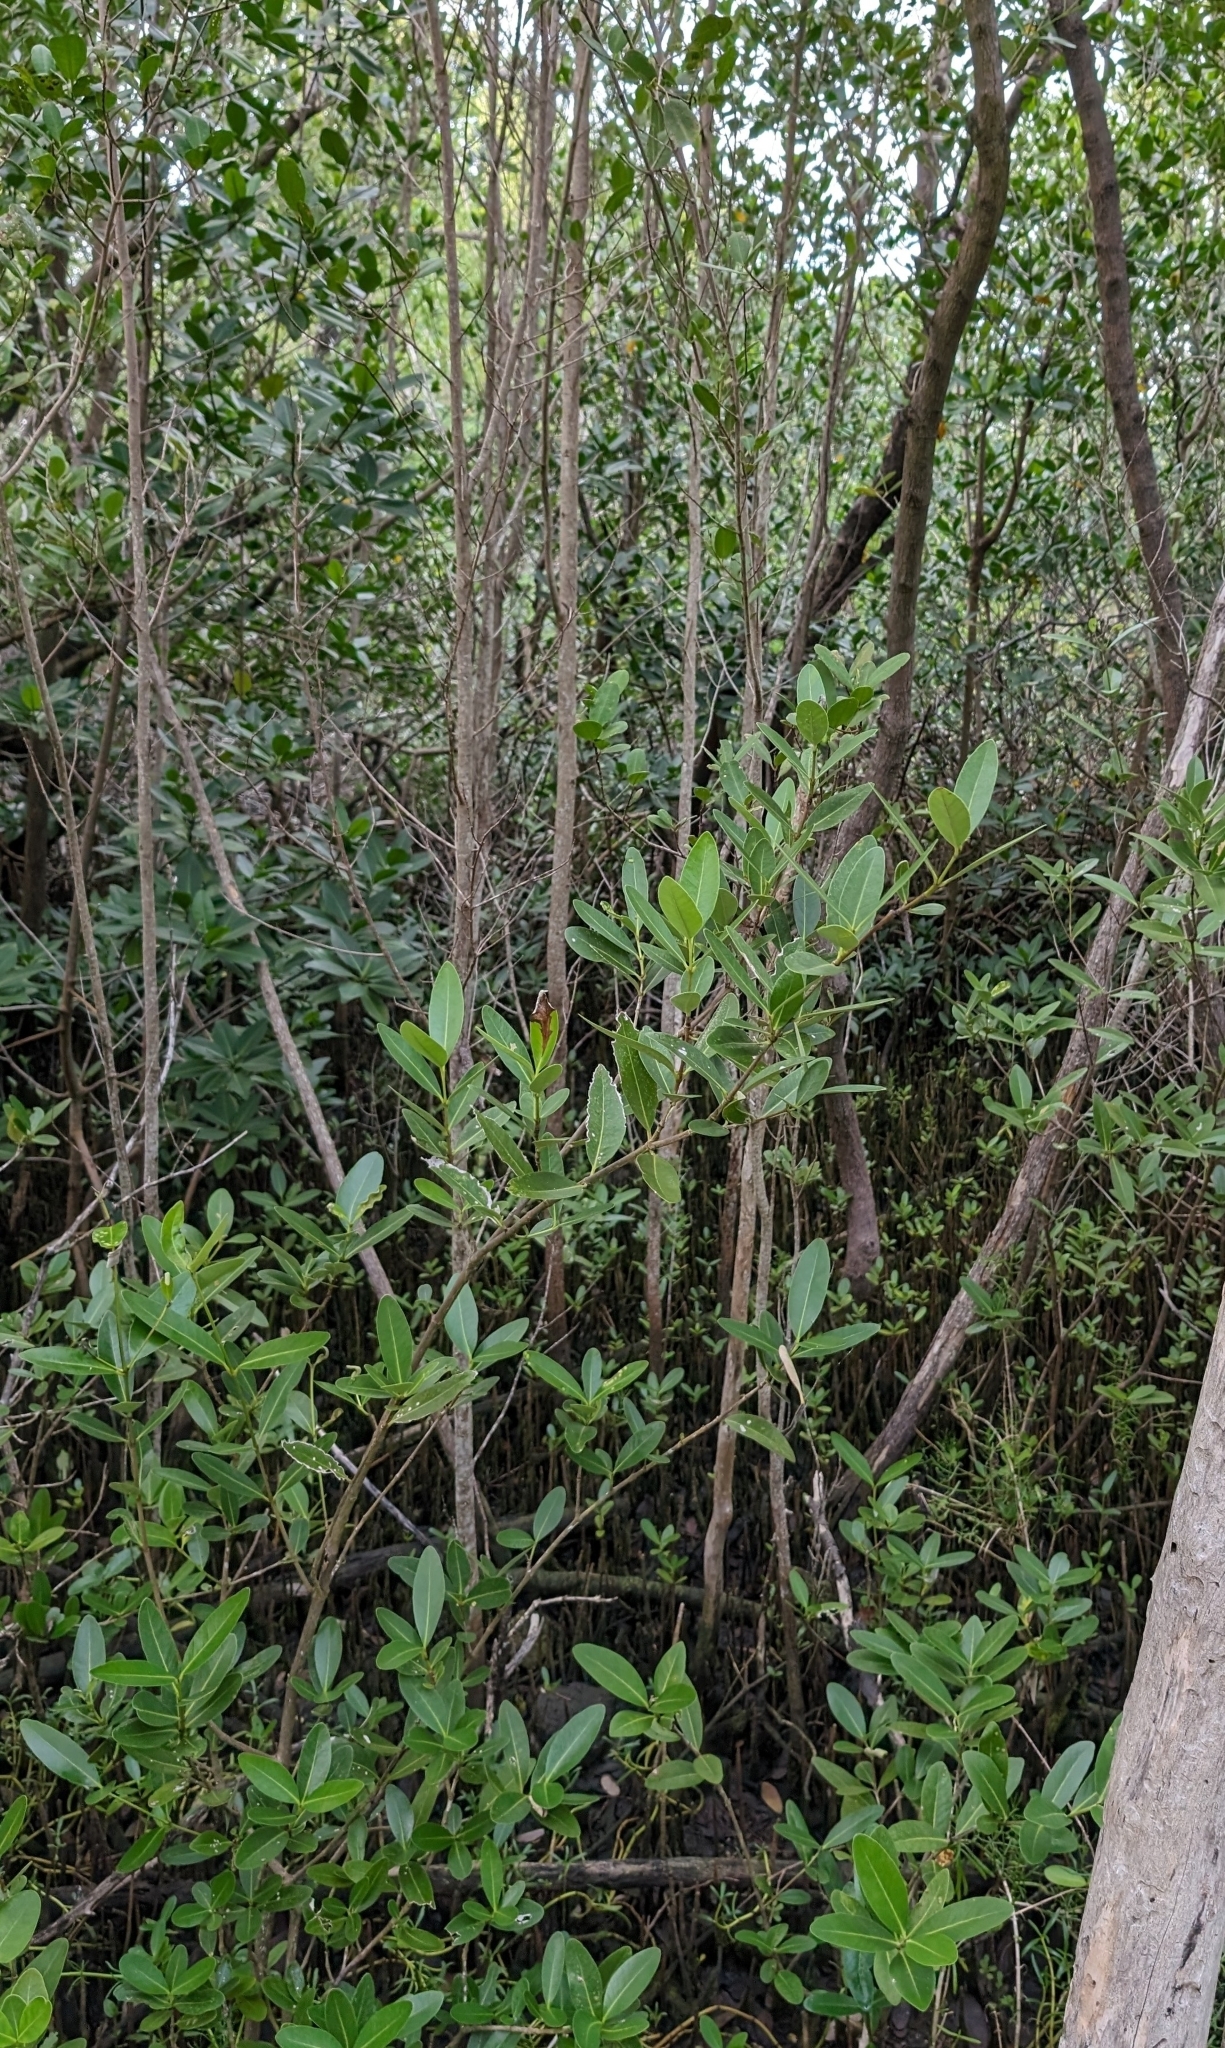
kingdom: Plantae
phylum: Tracheophyta
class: Magnoliopsida
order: Lamiales
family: Acanthaceae
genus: Avicennia
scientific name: Avicennia germinans
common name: Black mangrove
